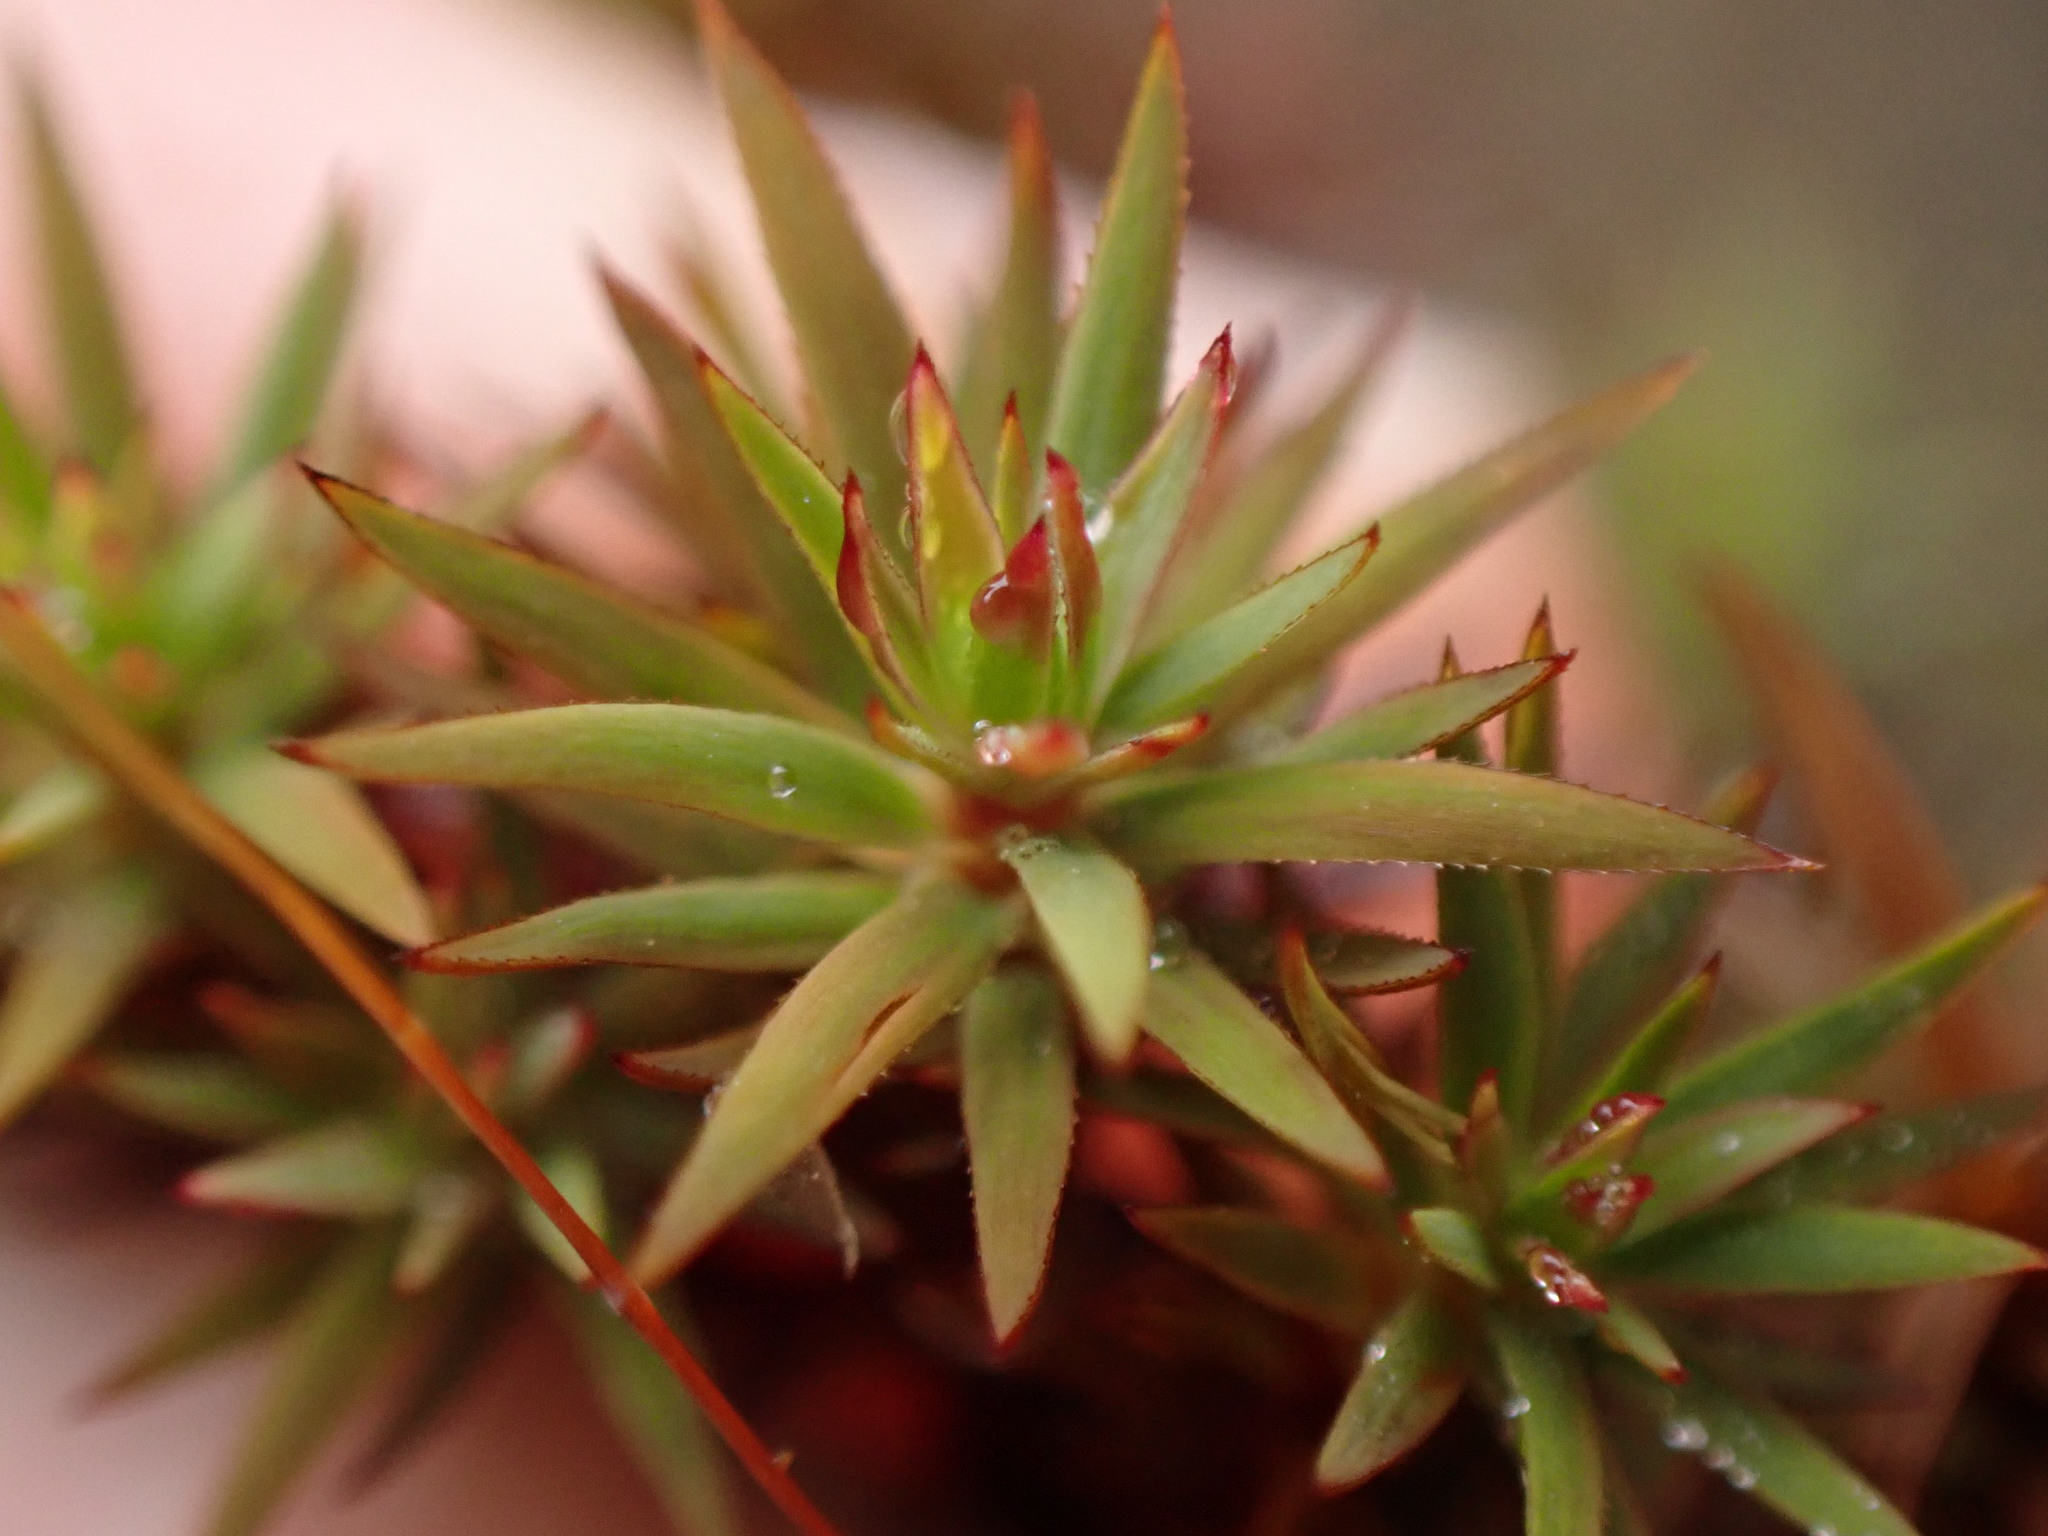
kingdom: Plantae
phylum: Bryophyta
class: Polytrichopsida
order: Polytrichales
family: Polytrichaceae
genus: Pogonatum
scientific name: Pogonatum urnigerum
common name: Urn hair moss
